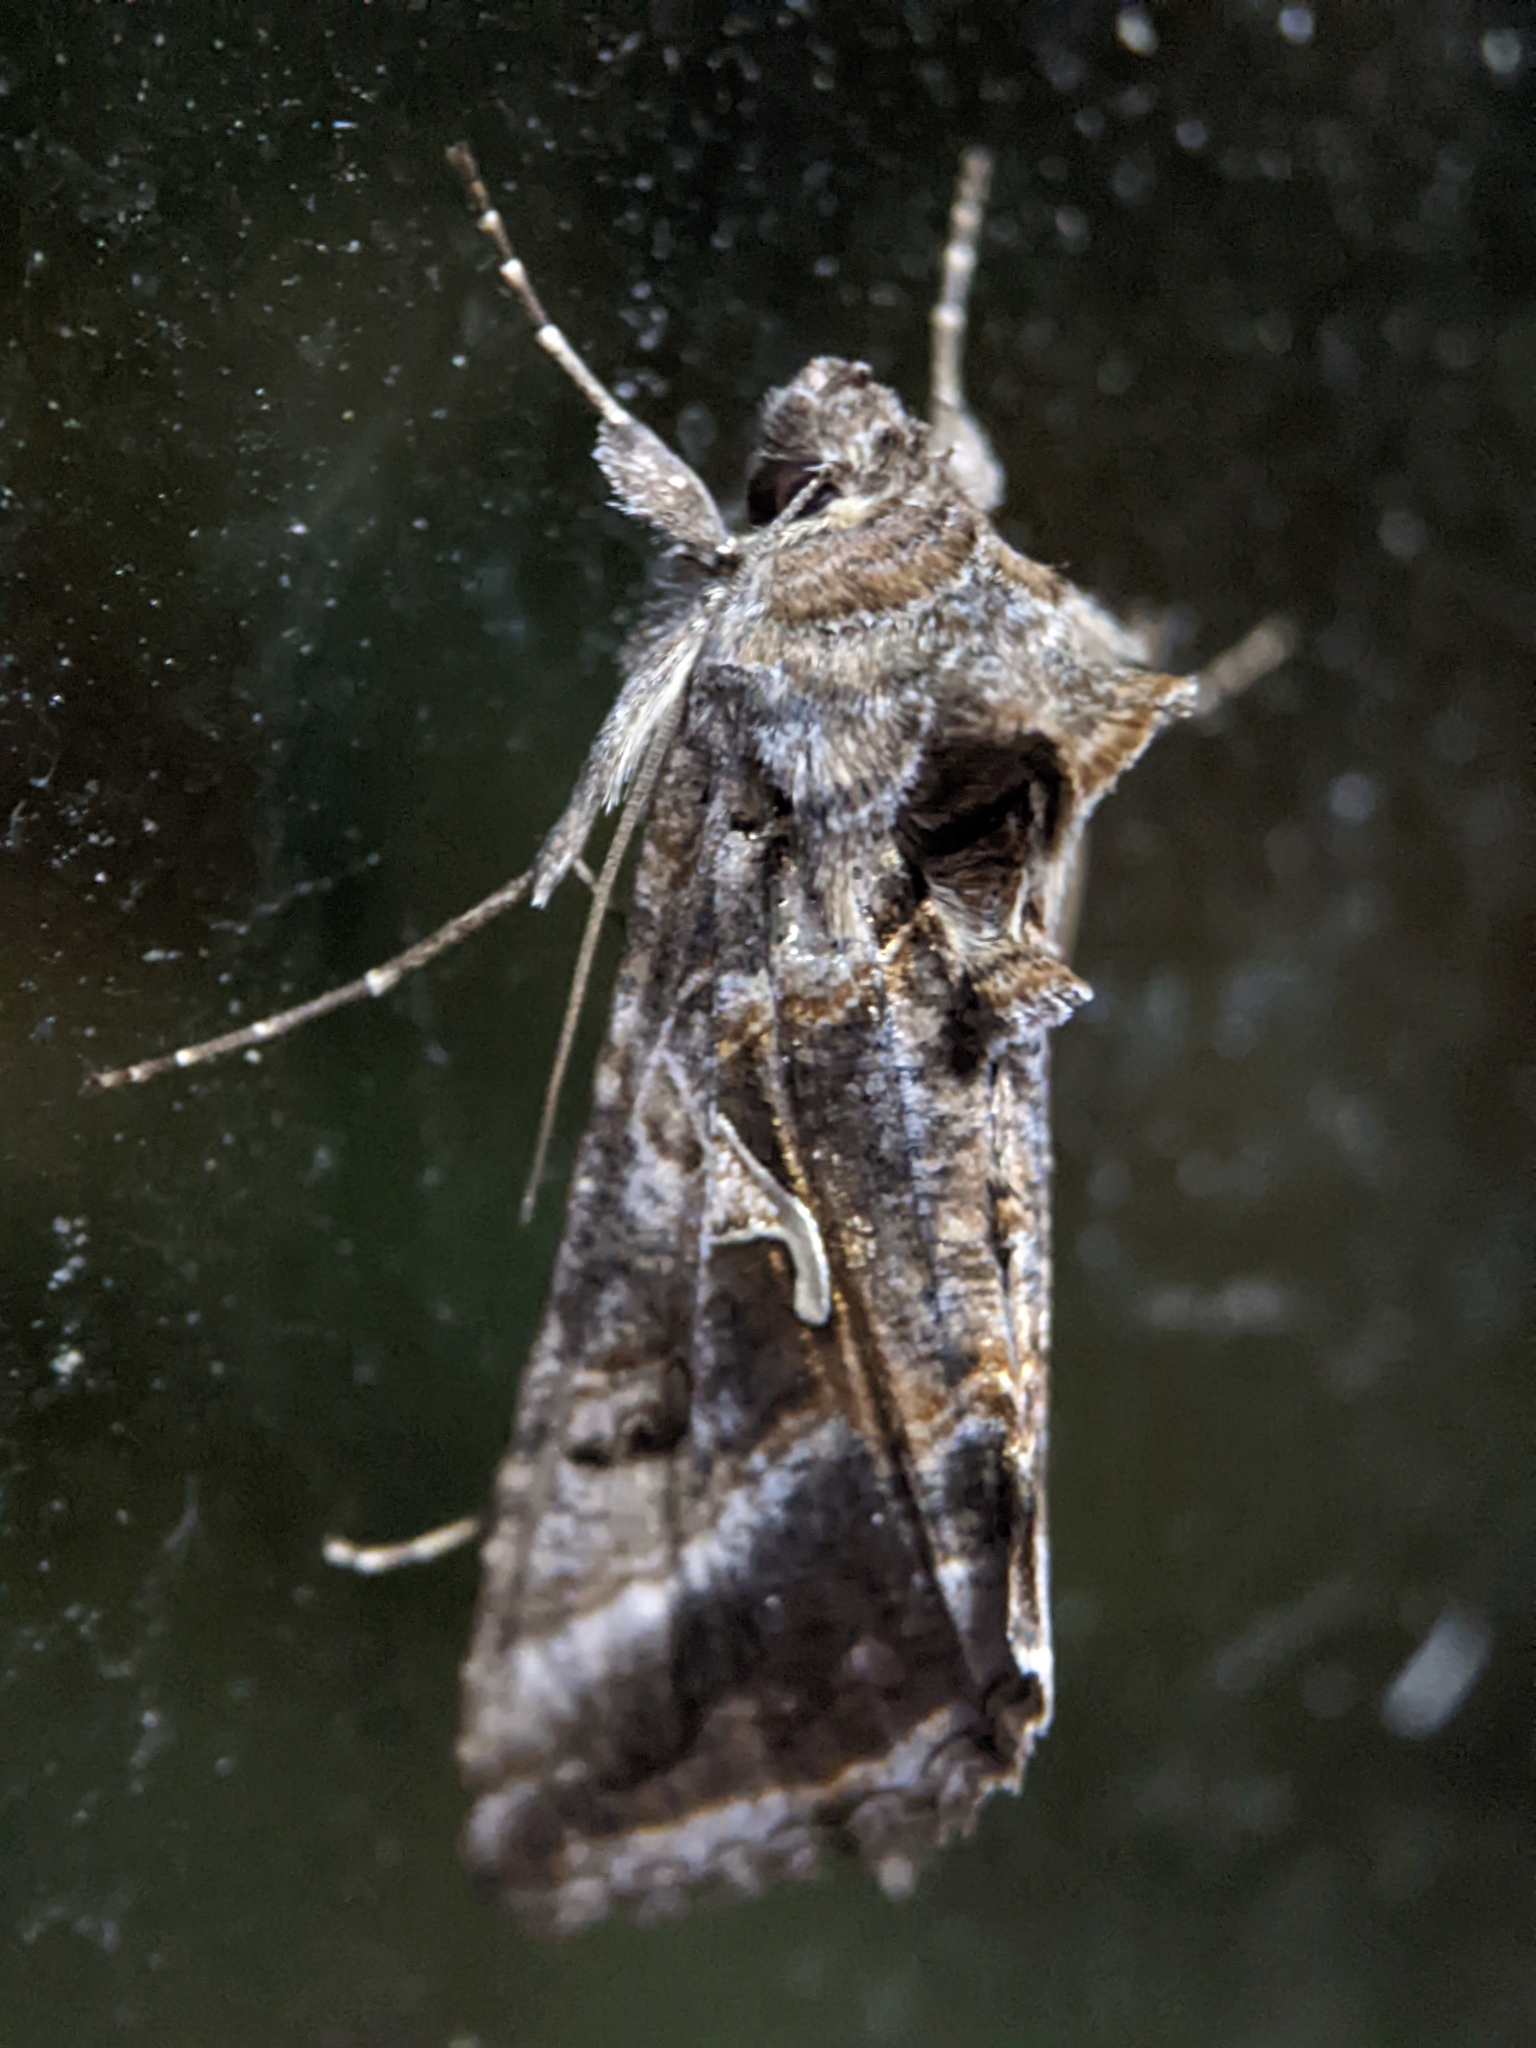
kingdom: Animalia
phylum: Arthropoda
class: Insecta
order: Lepidoptera
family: Noctuidae
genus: Autographa
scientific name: Autographa gamma
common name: Silver y
